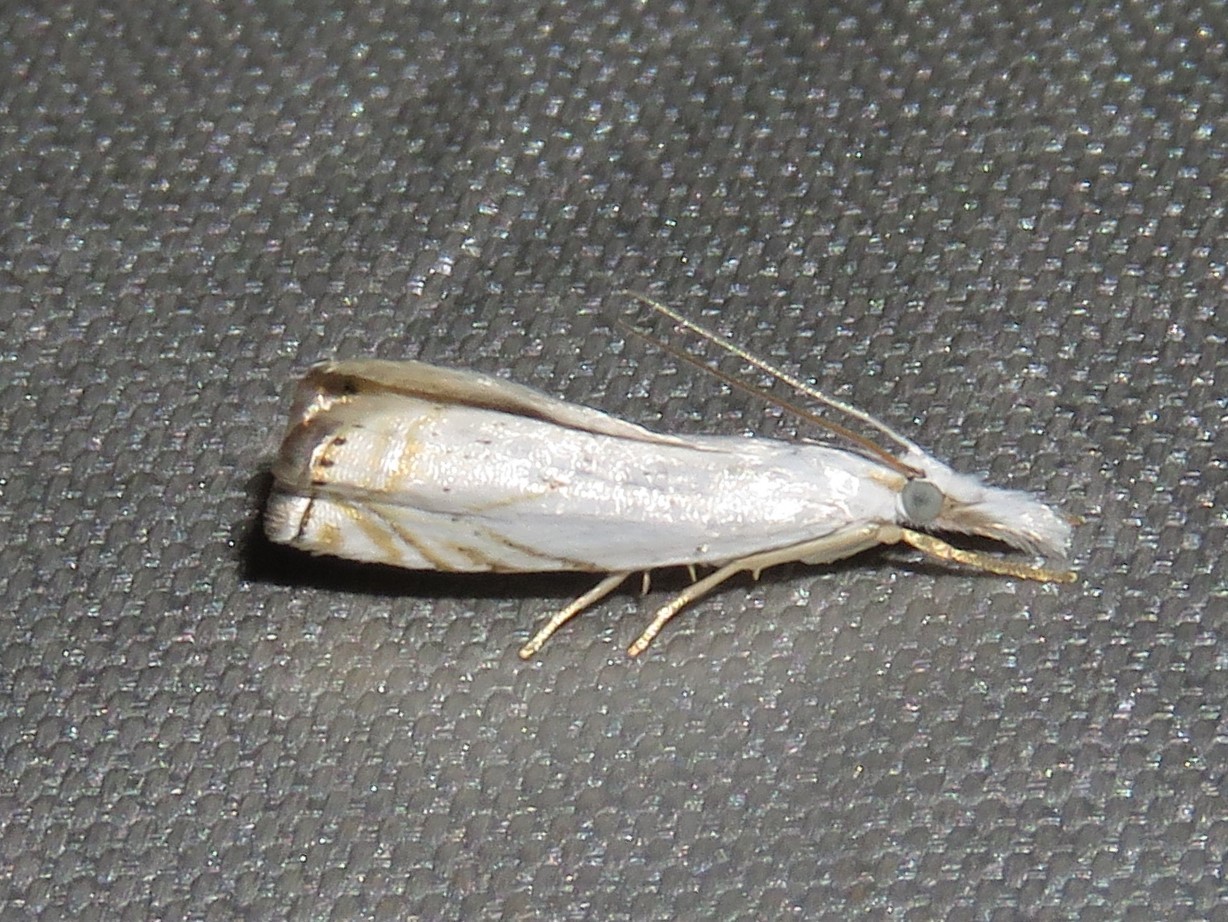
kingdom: Animalia
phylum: Arthropoda
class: Insecta
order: Lepidoptera
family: Crambidae
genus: Crambus
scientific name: Crambus albellus
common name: Small white grass-veneer
